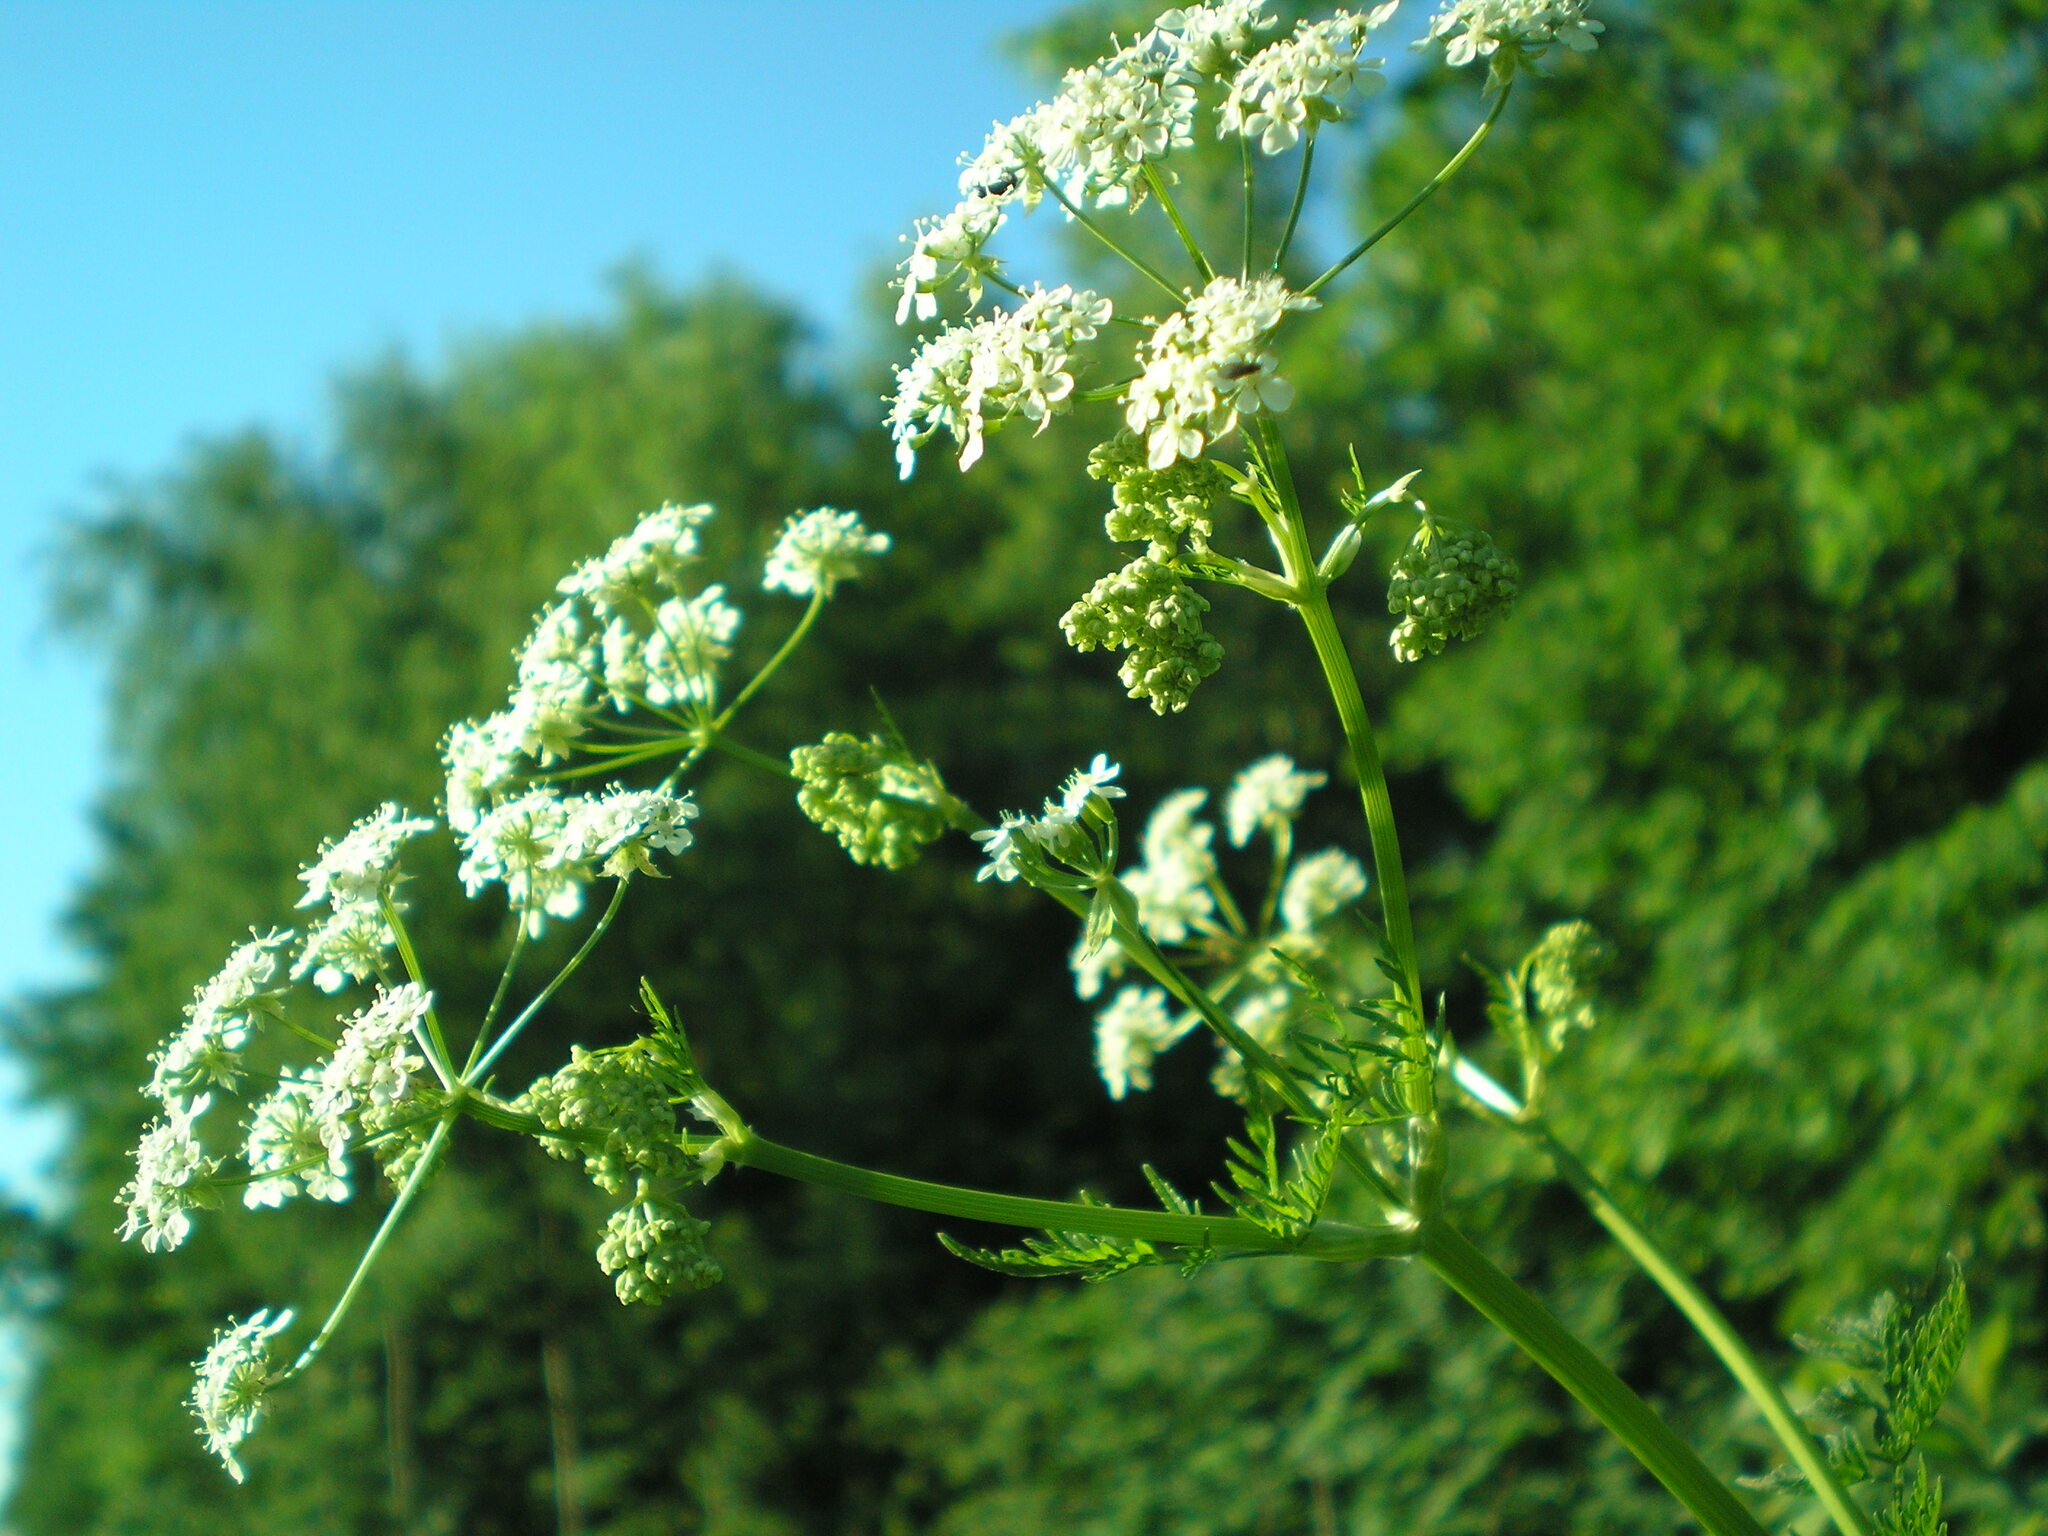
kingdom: Plantae
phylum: Tracheophyta
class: Magnoliopsida
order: Apiales
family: Apiaceae
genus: Anthriscus
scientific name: Anthriscus sylvestris
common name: Cow parsley
